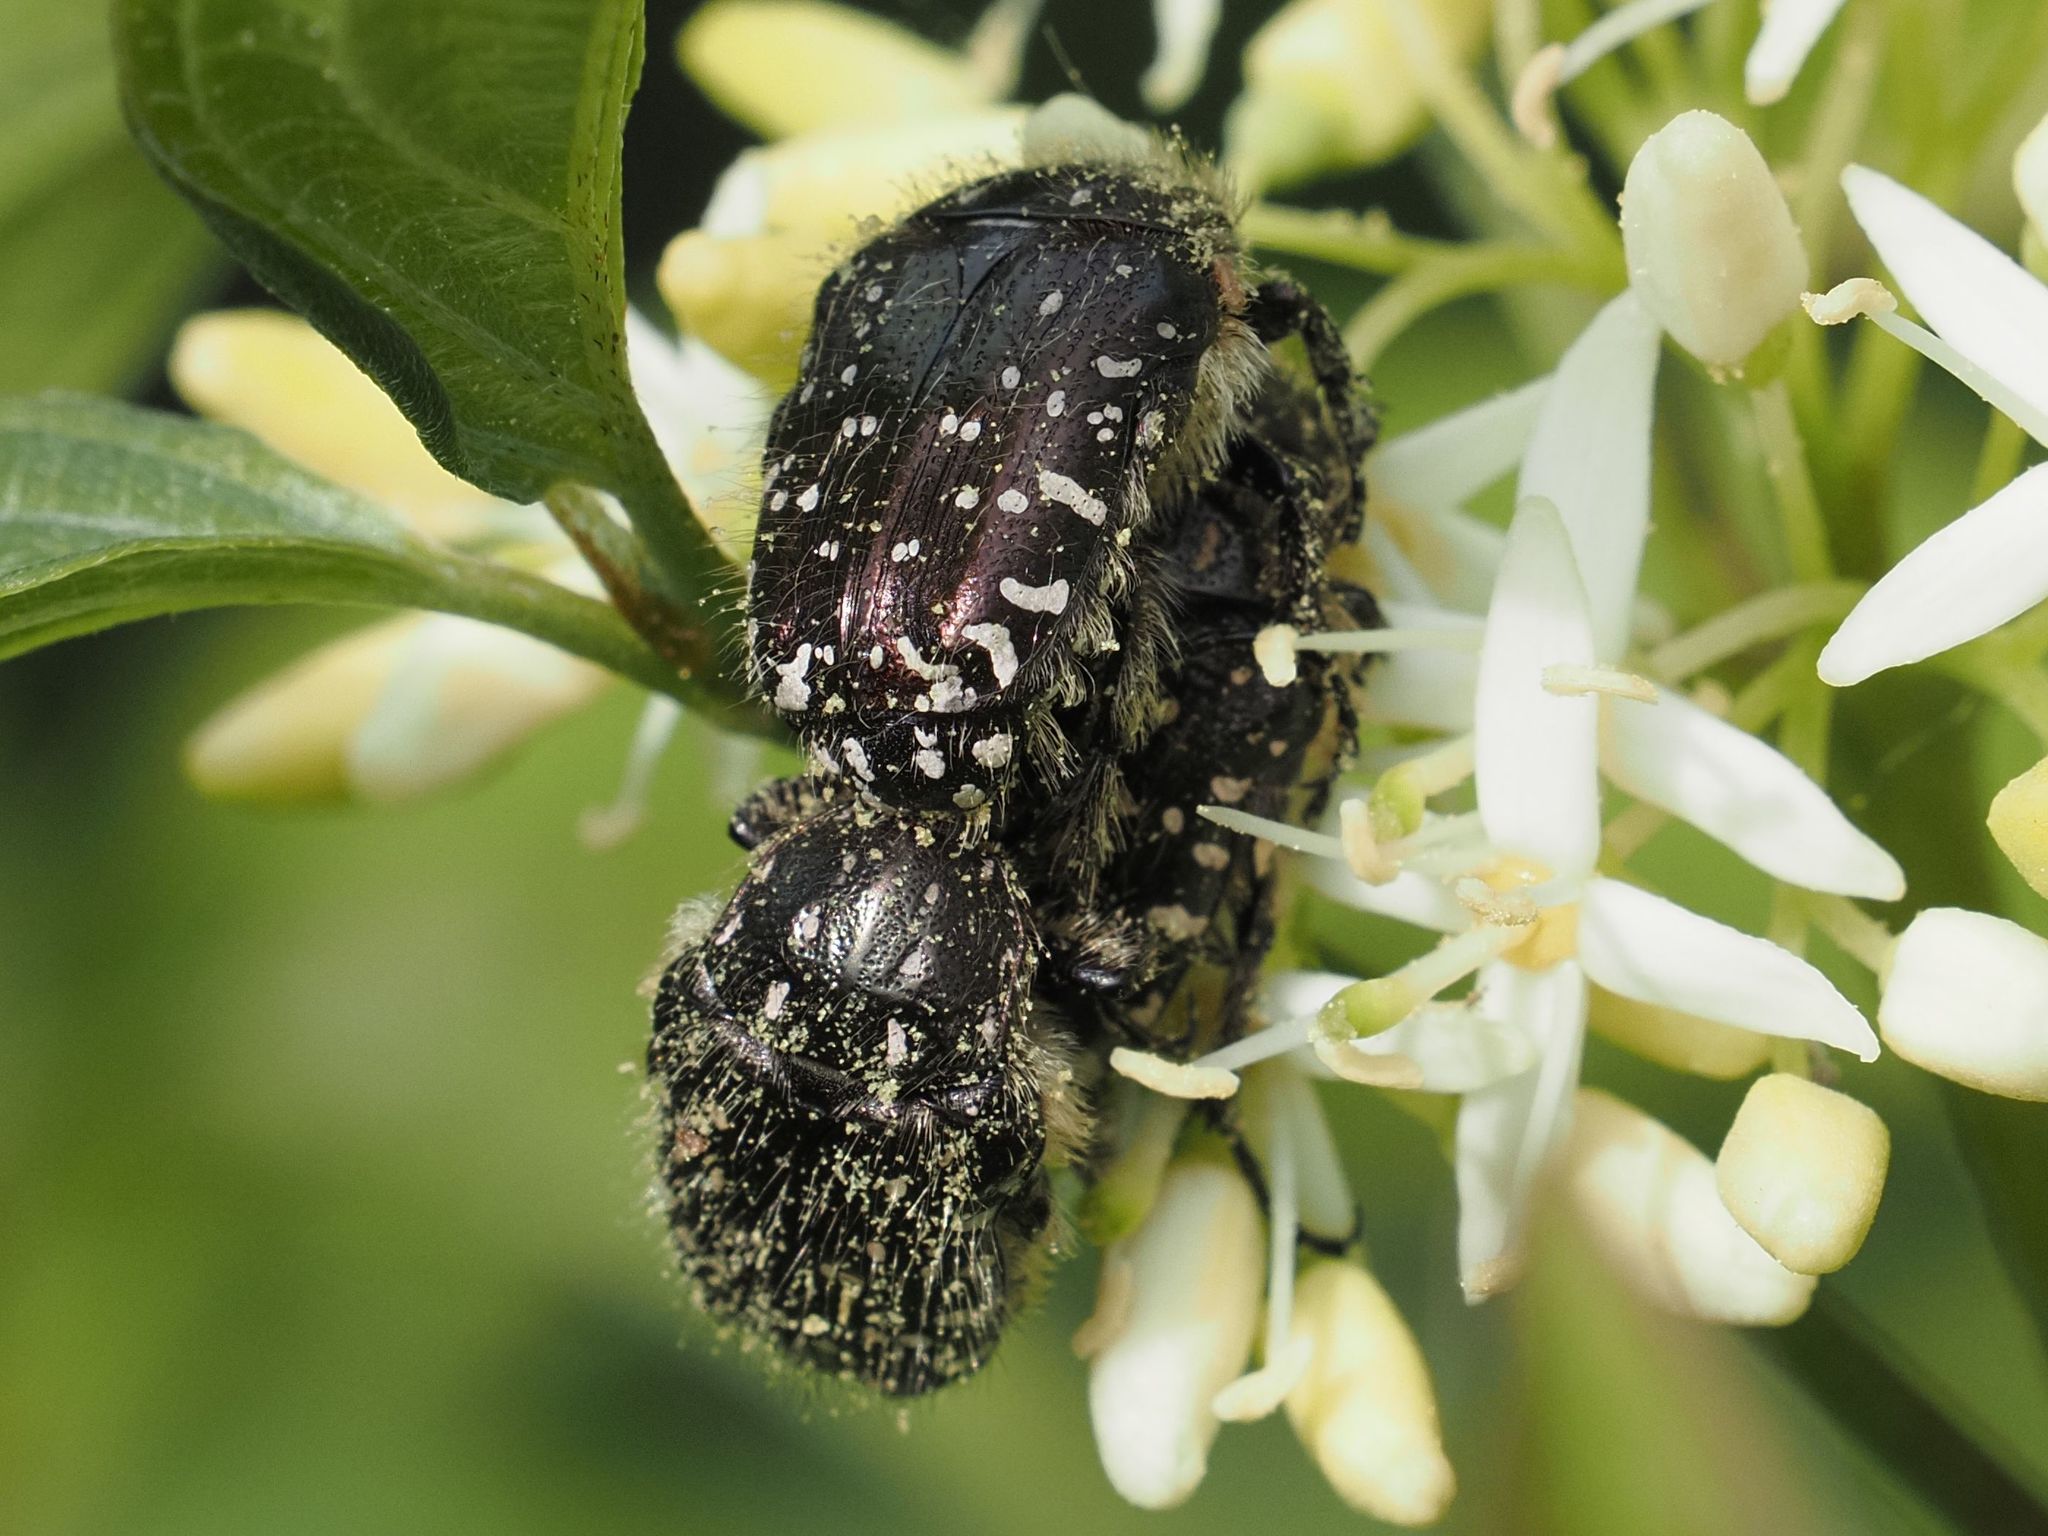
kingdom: Animalia
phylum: Arthropoda
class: Insecta
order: Coleoptera
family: Scarabaeidae
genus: Oxythyrea
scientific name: Oxythyrea funesta
